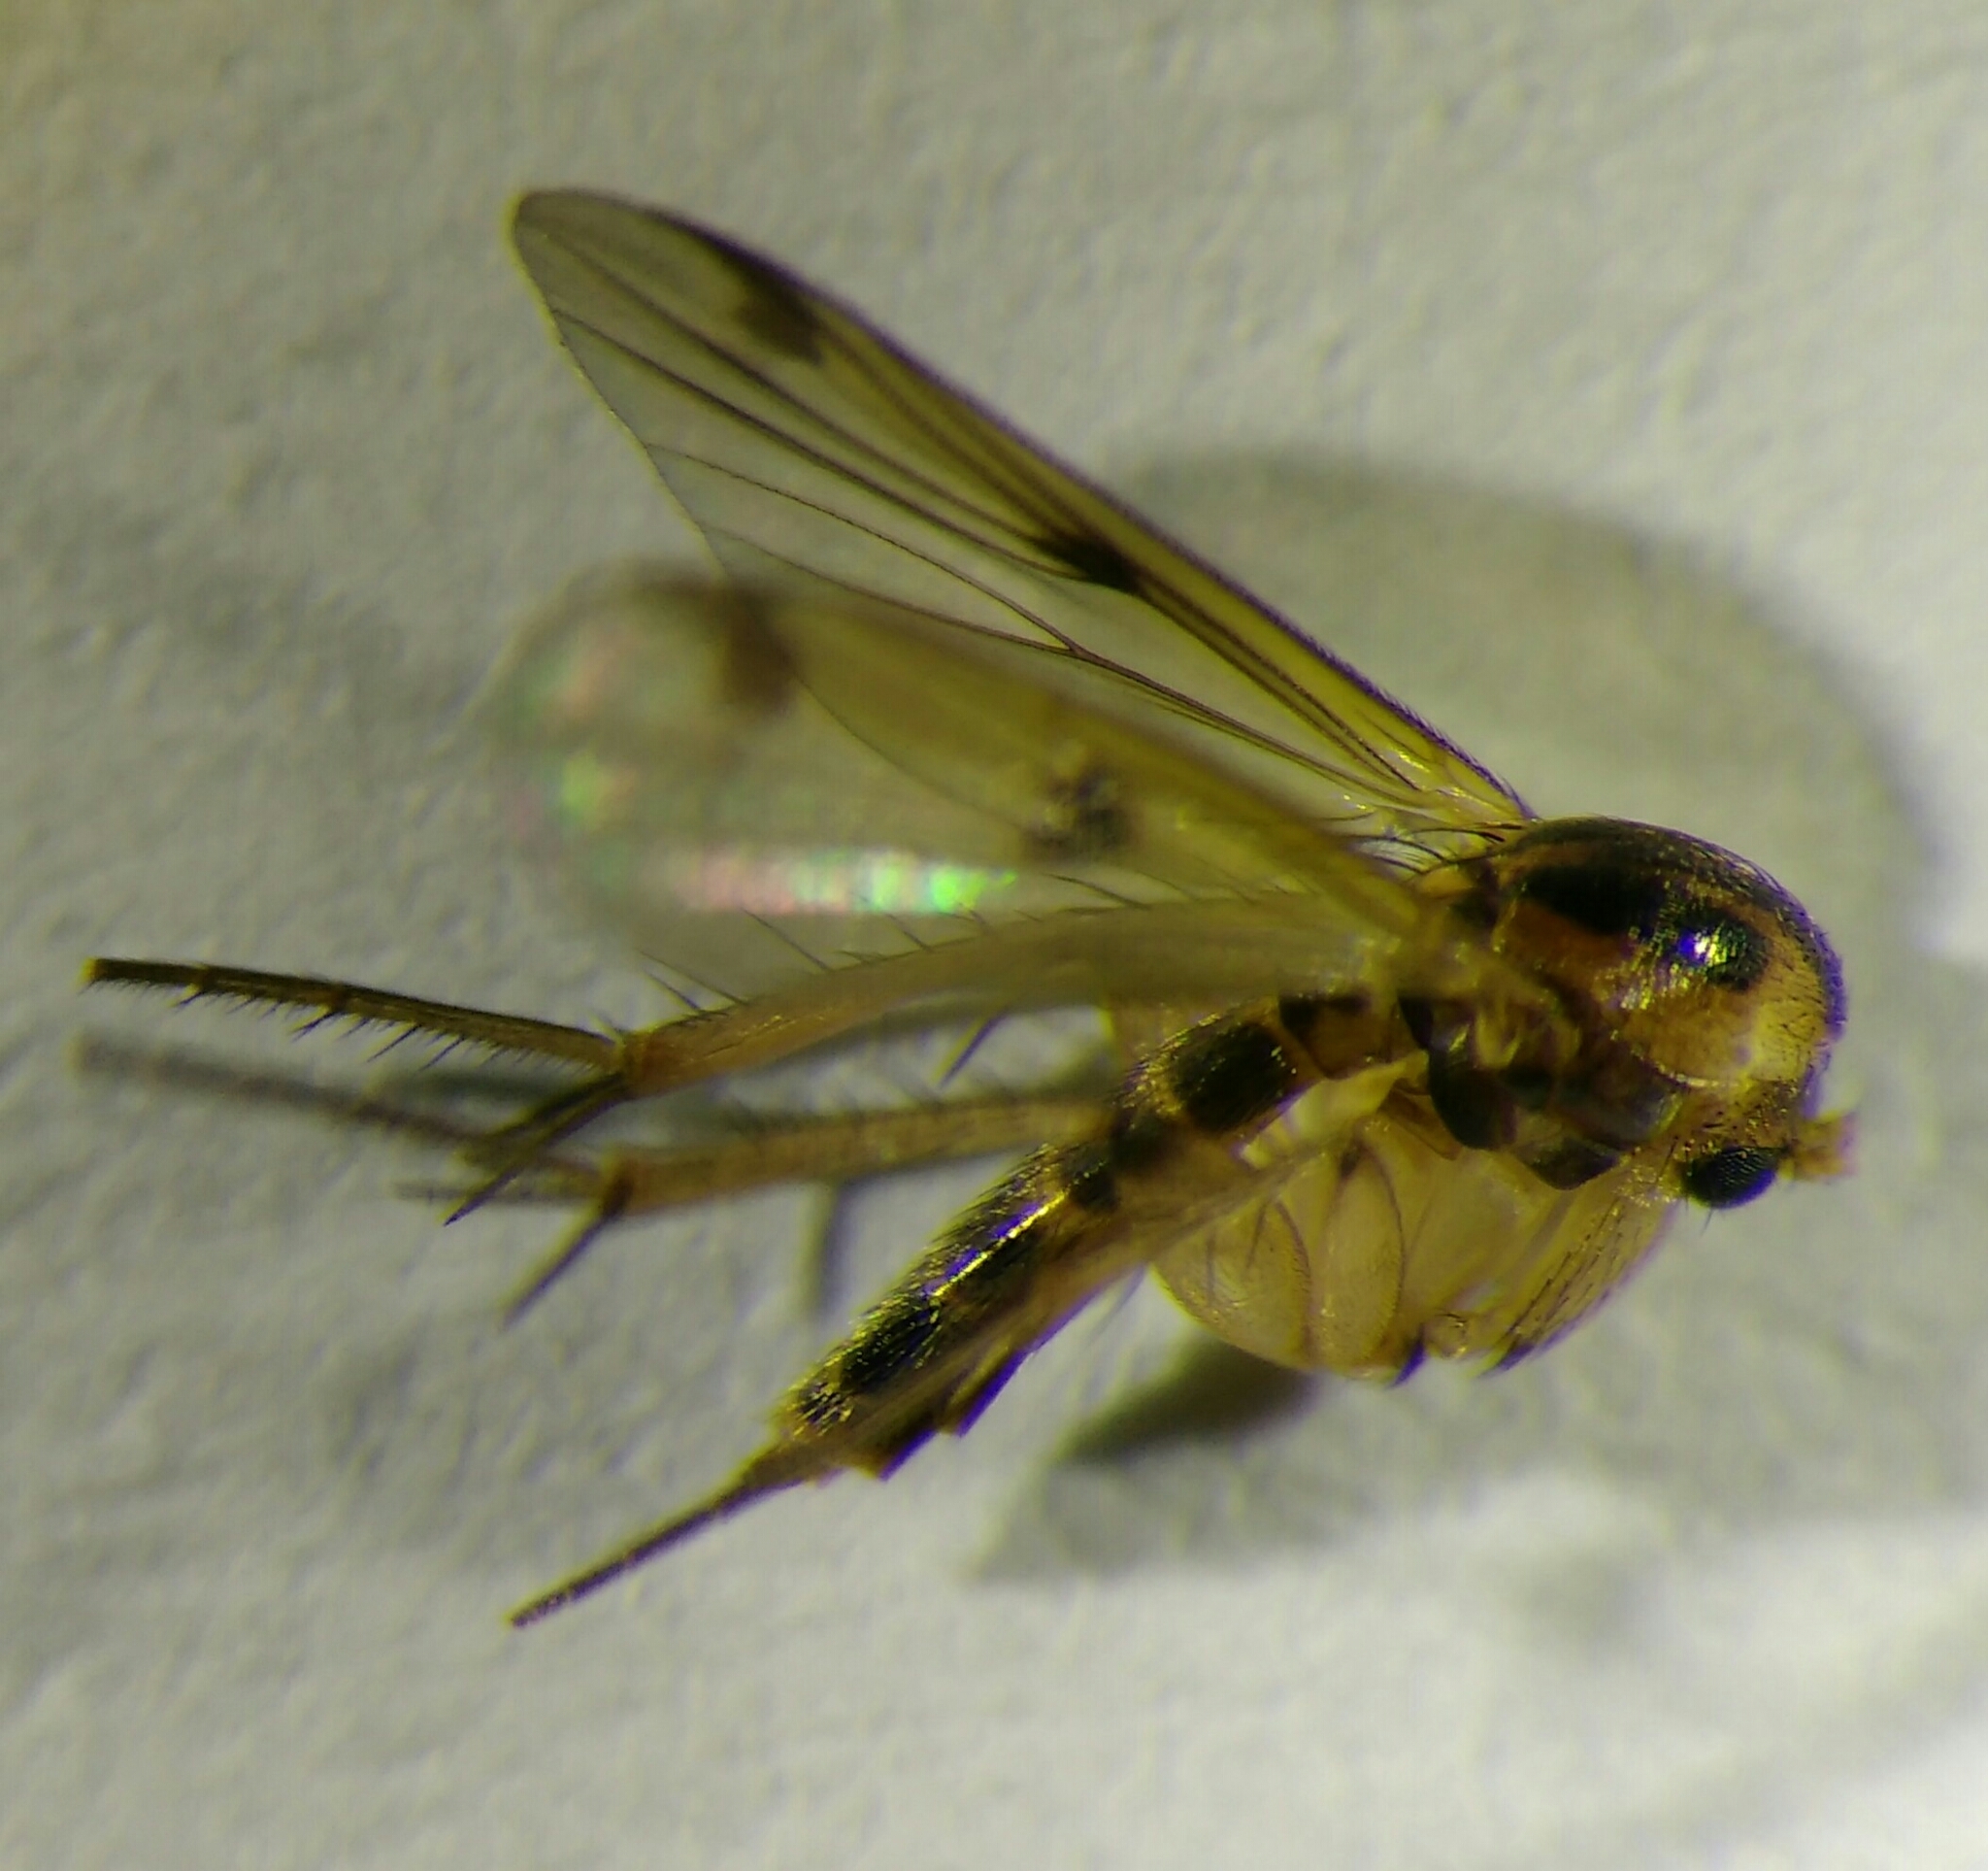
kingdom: Animalia
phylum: Arthropoda
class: Insecta
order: Diptera
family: Mycetophilidae
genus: Mycetophila
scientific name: Mycetophila
